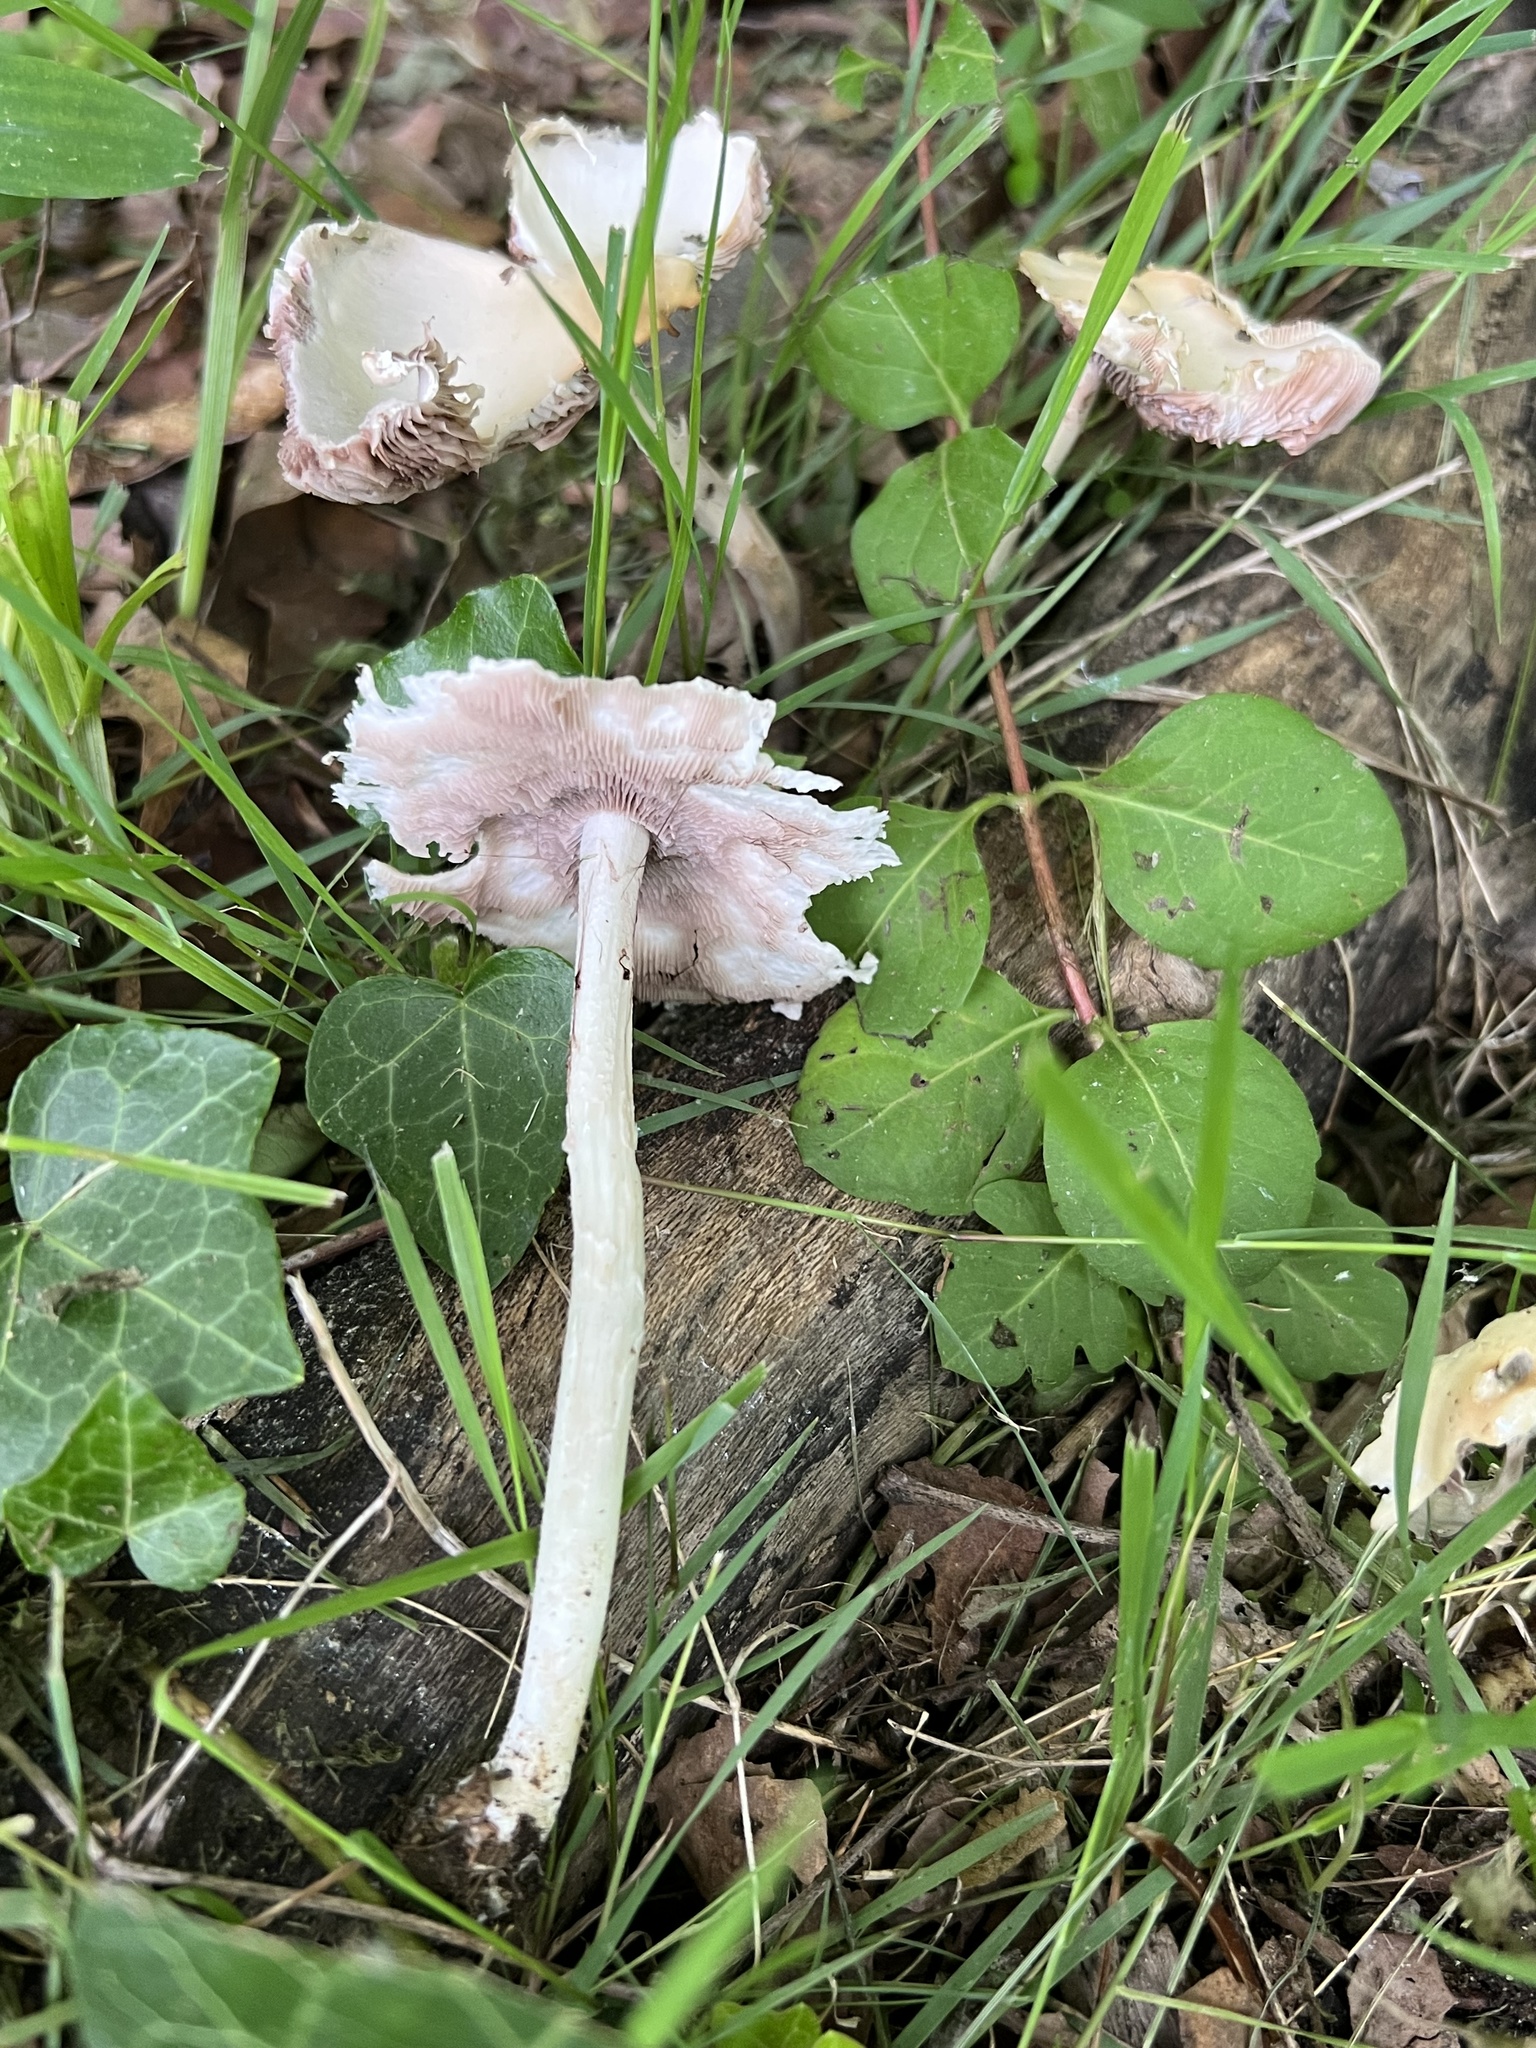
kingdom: Fungi
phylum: Basidiomycota
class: Agaricomycetes
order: Agaricales
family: Psathyrellaceae
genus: Candolleomyces
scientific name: Candolleomyces candolleanus
